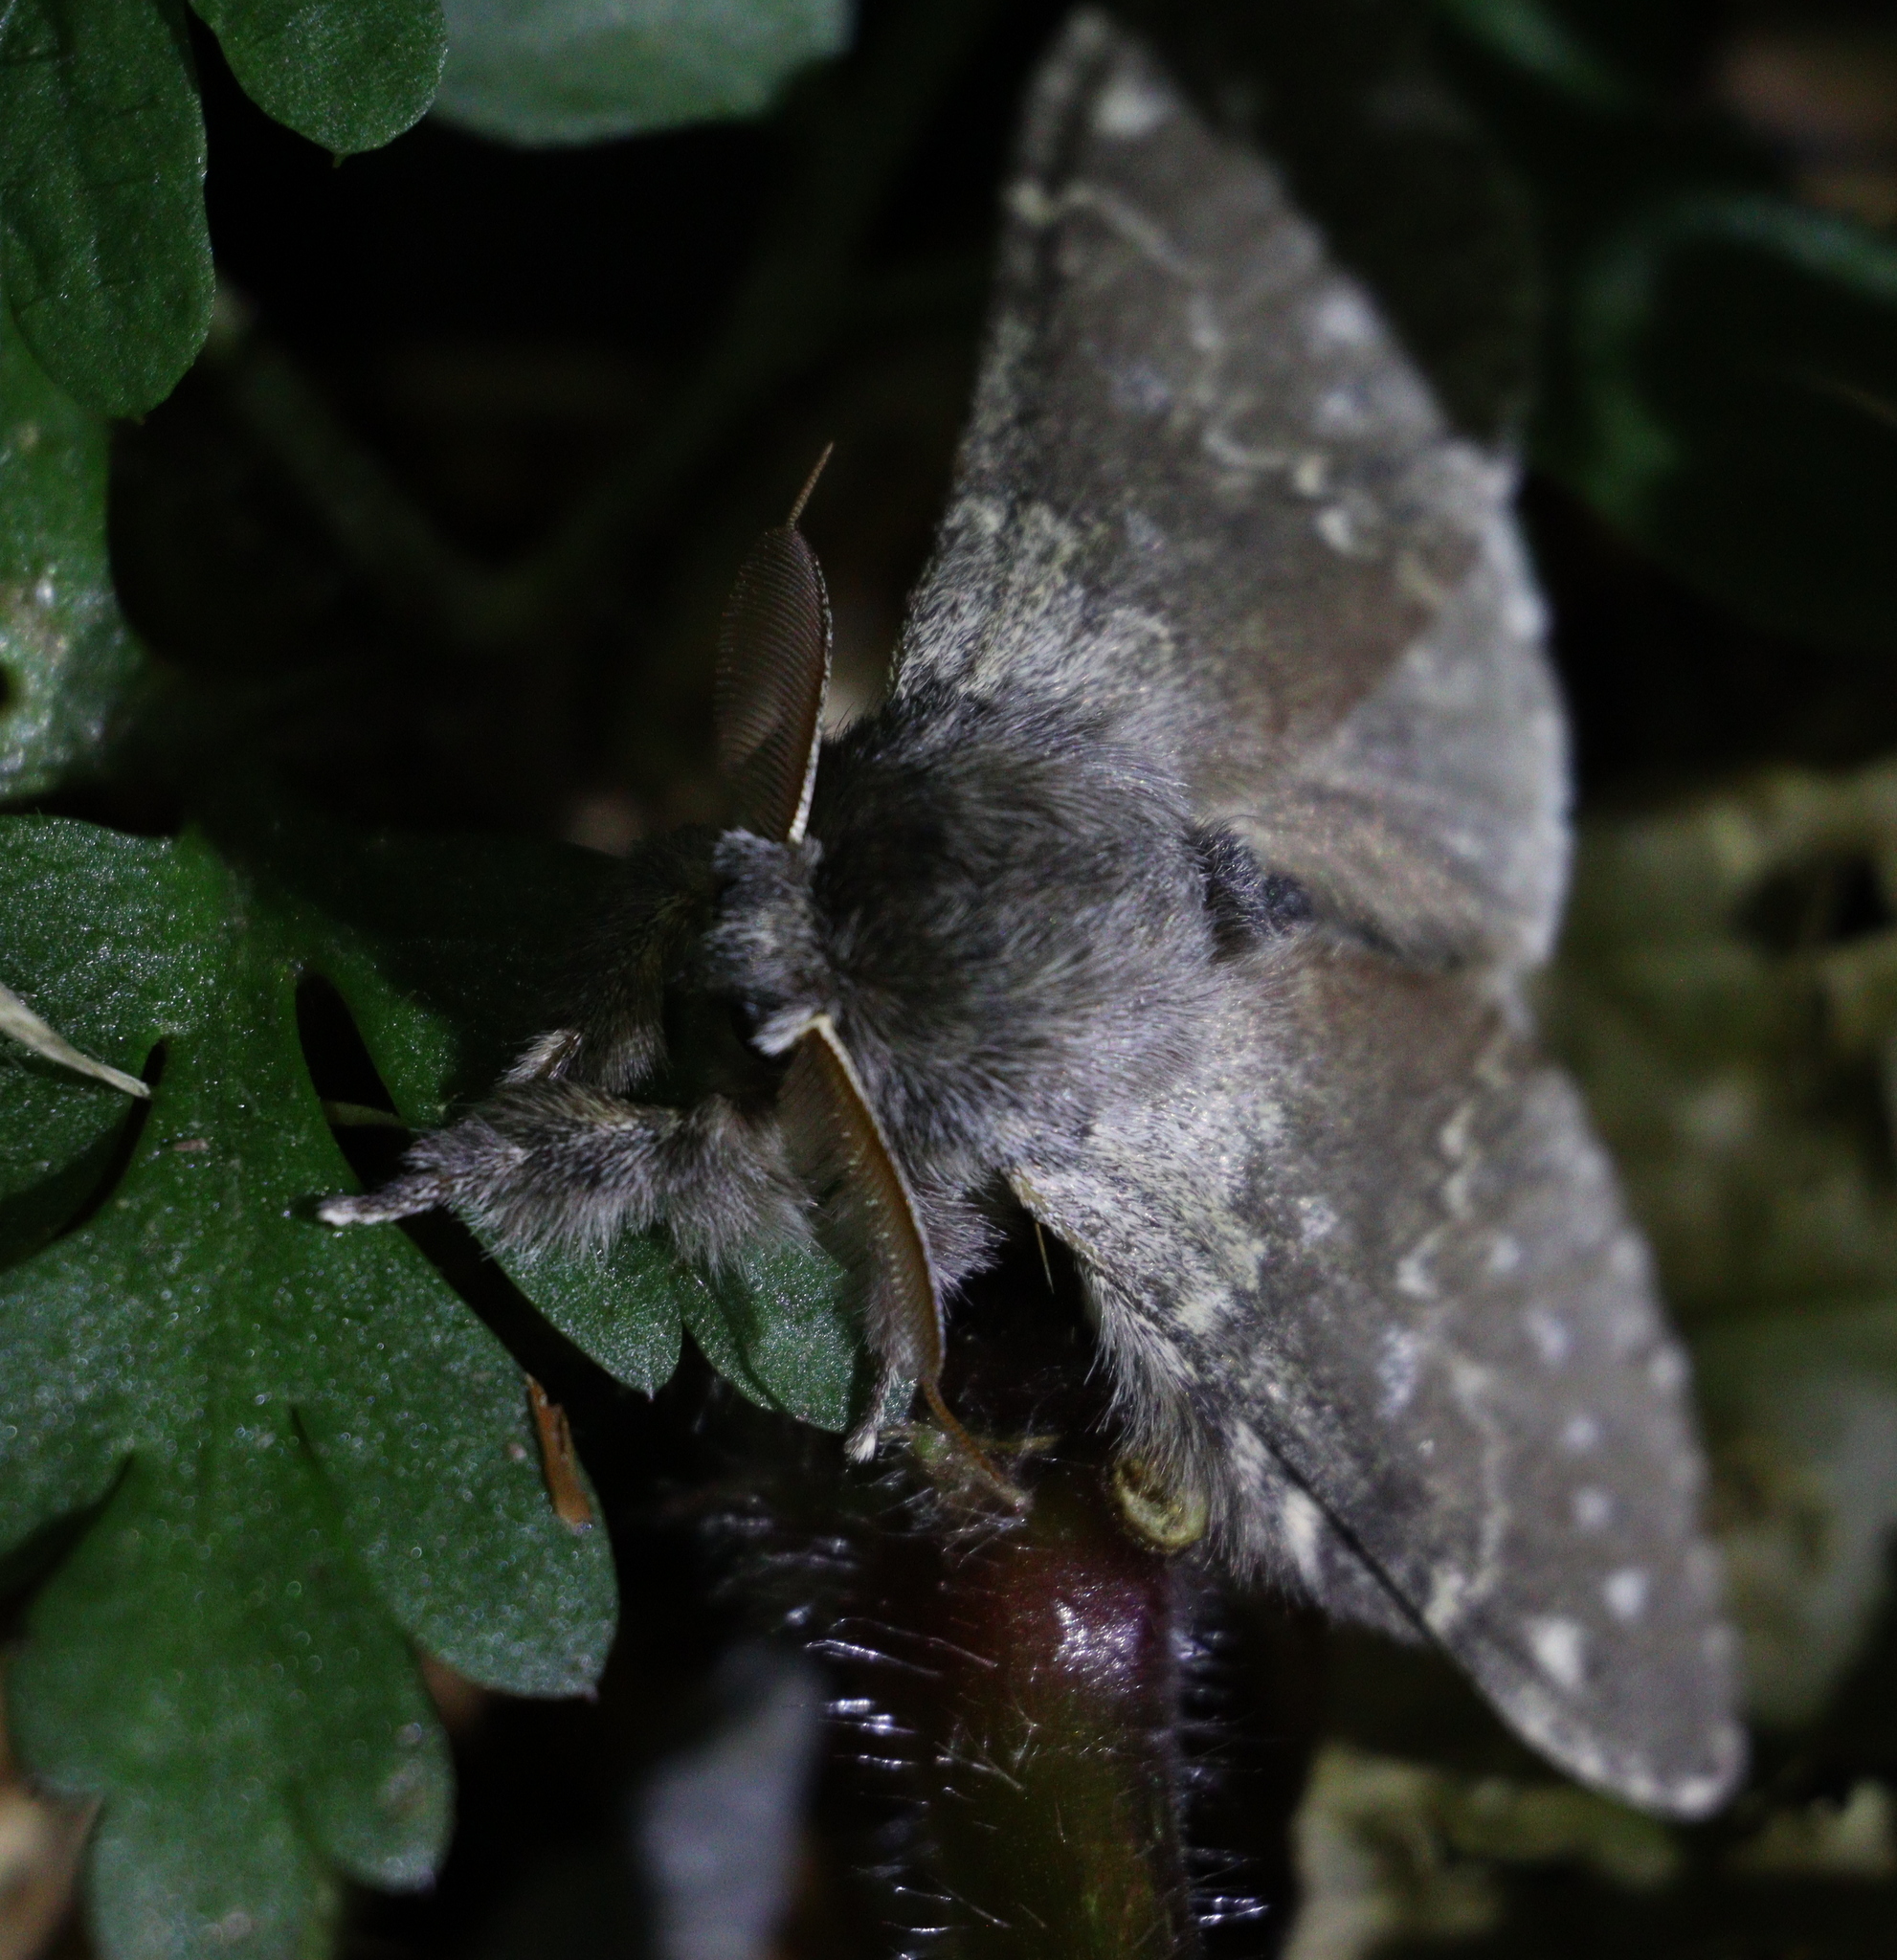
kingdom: Animalia
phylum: Arthropoda
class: Insecta
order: Lepidoptera
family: Notodontidae
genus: Stauropus
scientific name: Stauropus fagi
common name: Lobster moth
